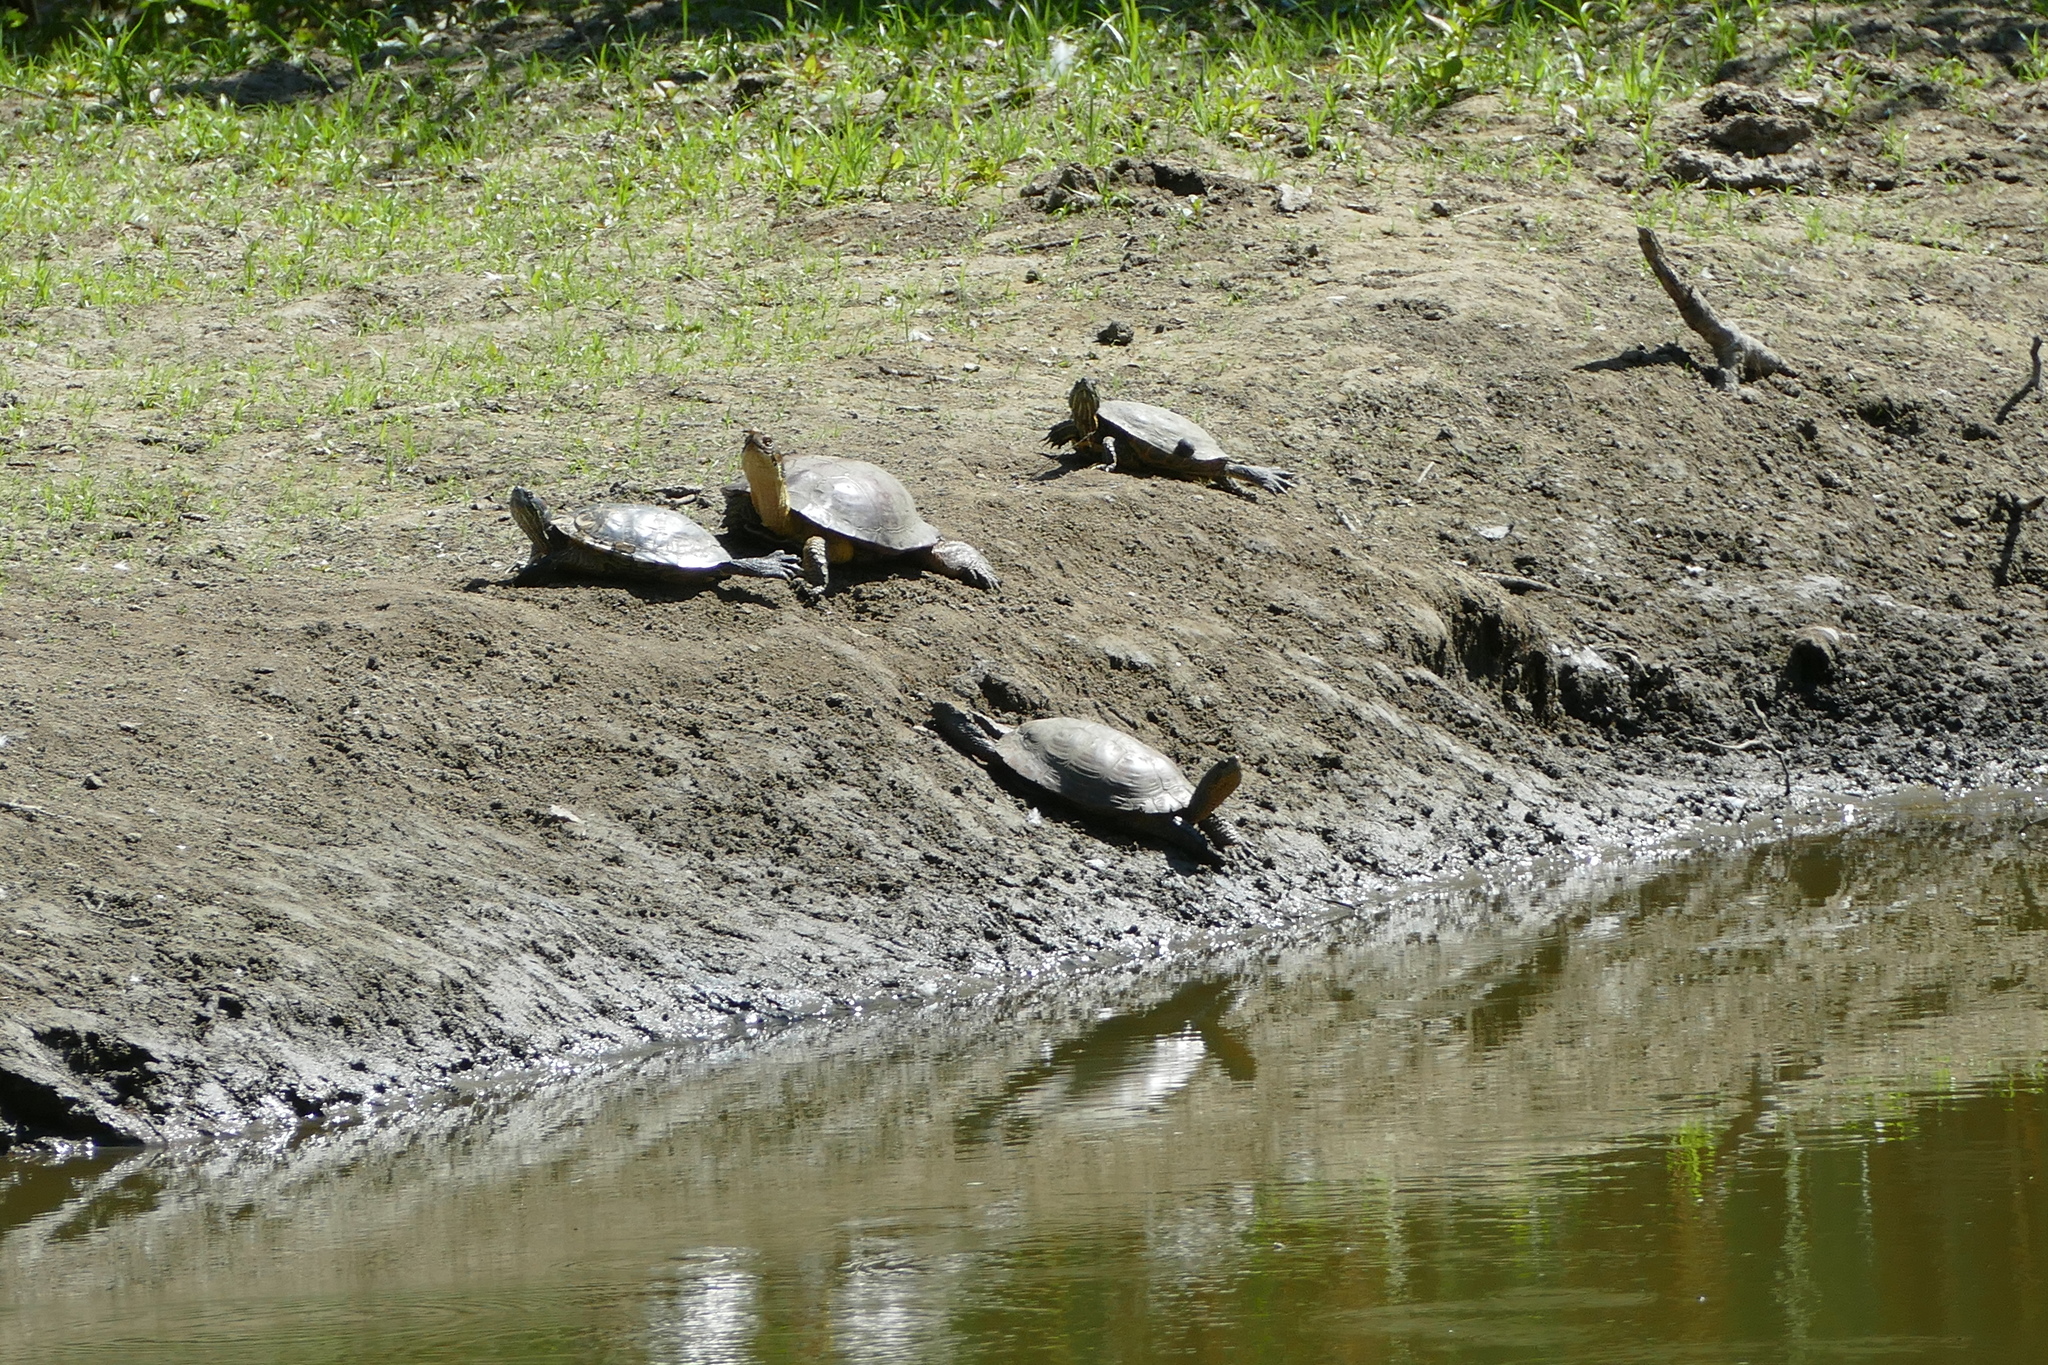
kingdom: Animalia
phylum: Chordata
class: Testudines
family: Emydidae
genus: Actinemys
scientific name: Actinemys marmorata
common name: Western pond turtle
